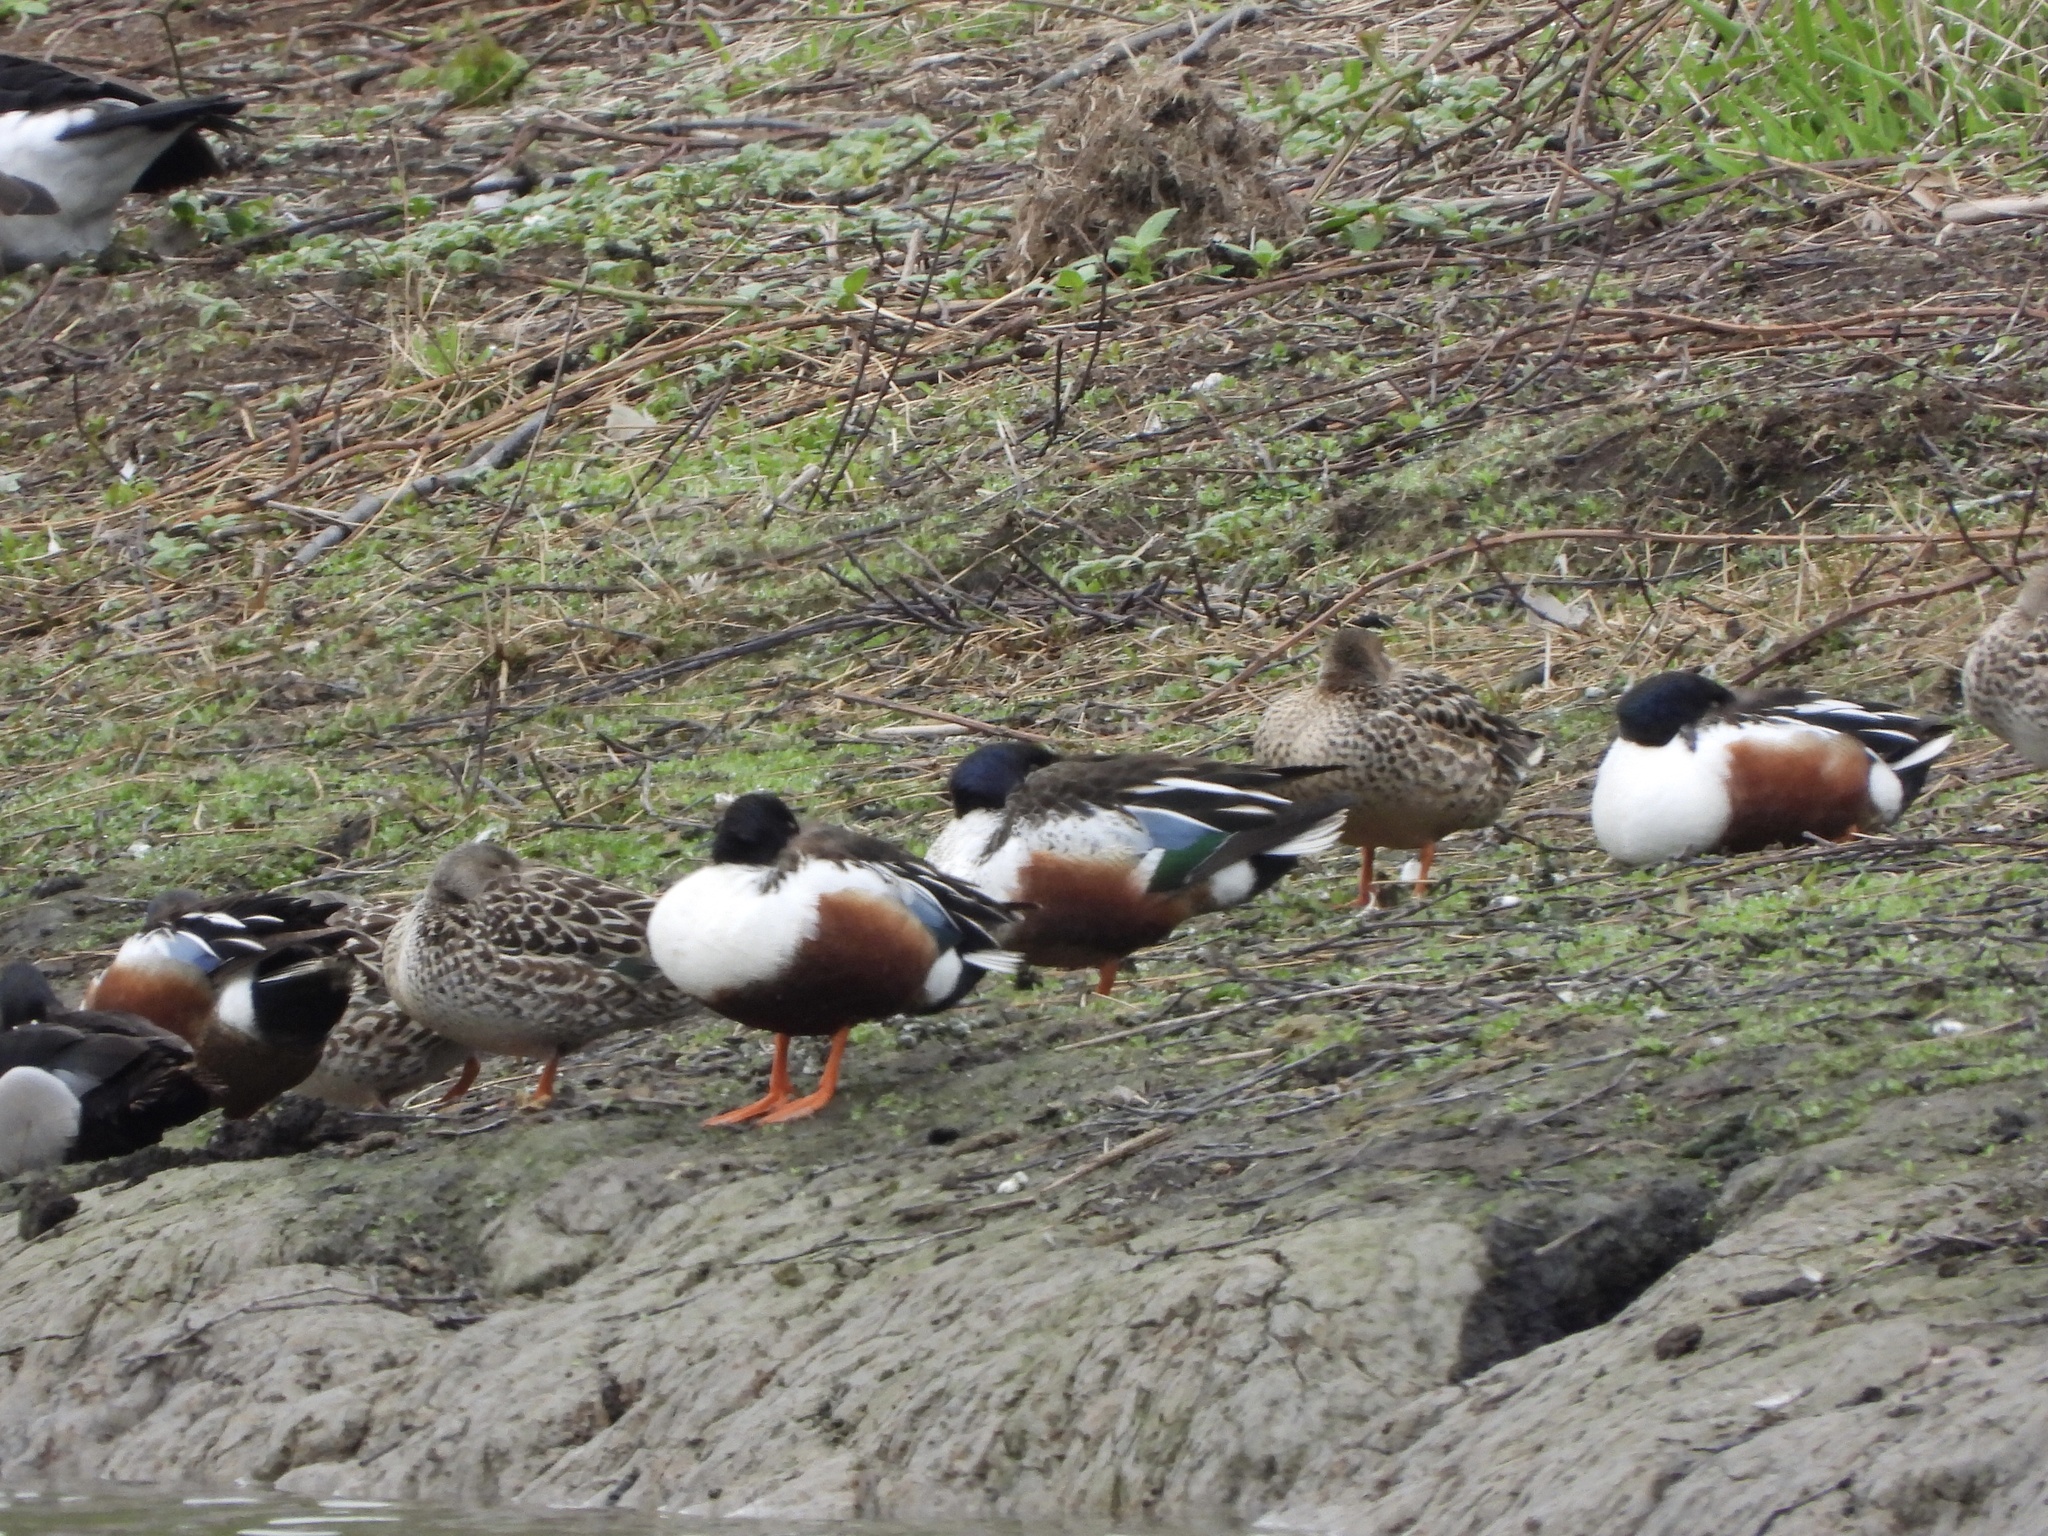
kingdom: Animalia
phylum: Chordata
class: Aves
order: Anseriformes
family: Anatidae
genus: Spatula
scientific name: Spatula clypeata
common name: Northern shoveler
